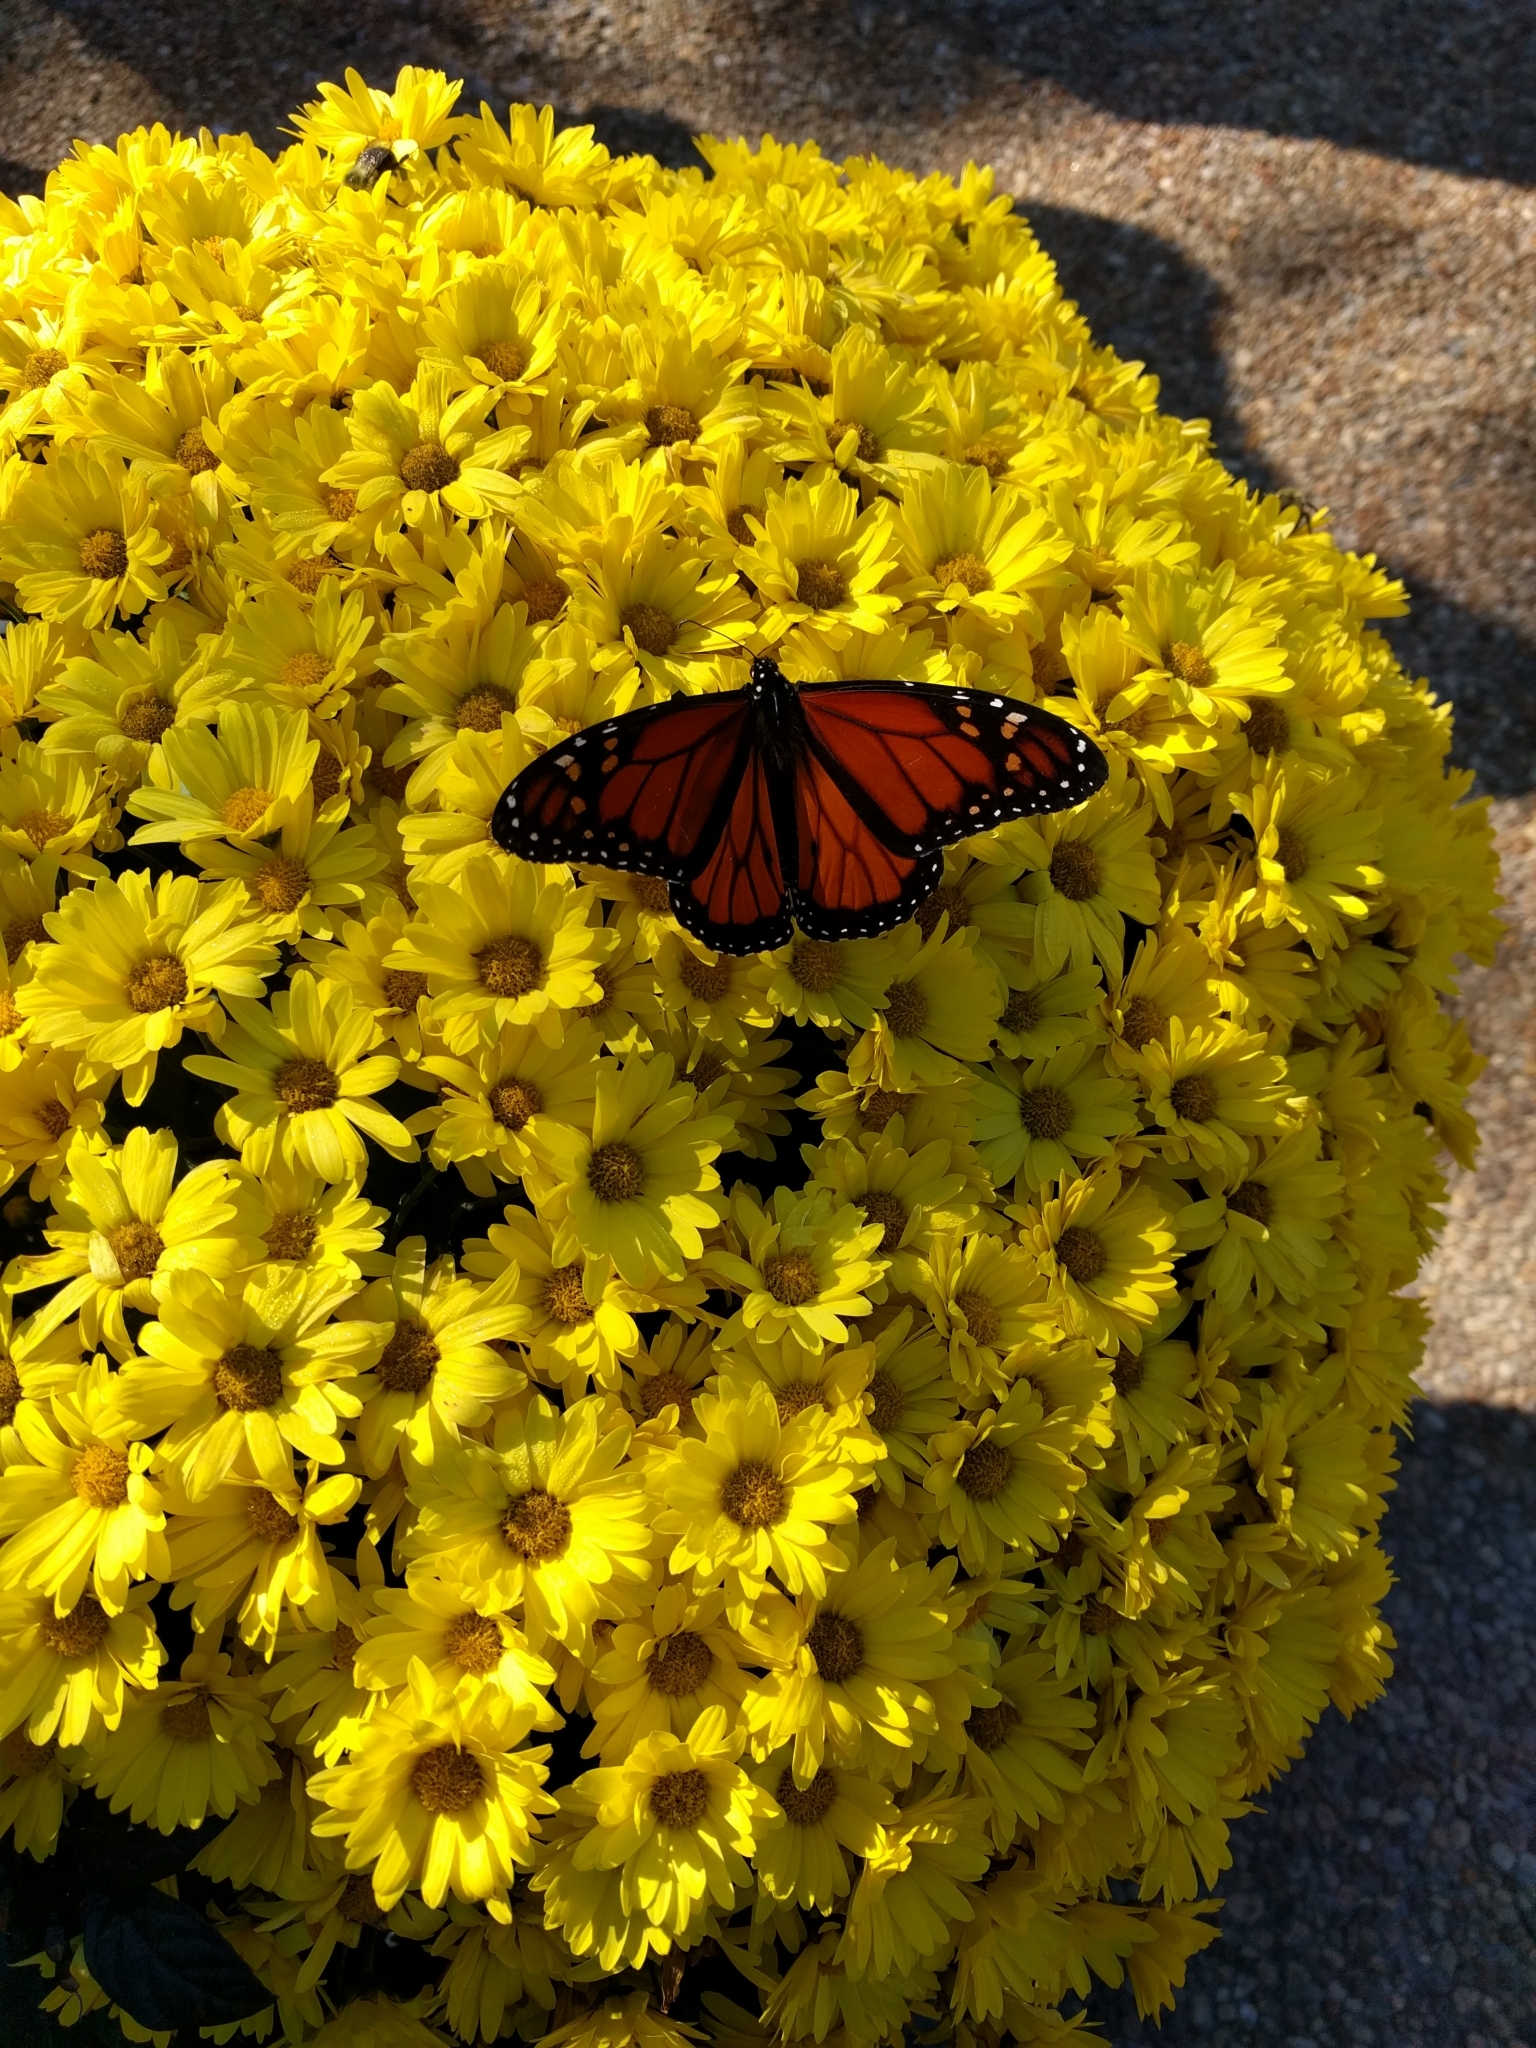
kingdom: Animalia
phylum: Arthropoda
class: Insecta
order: Lepidoptera
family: Nymphalidae
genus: Danaus
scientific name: Danaus plexippus
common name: Monarch
